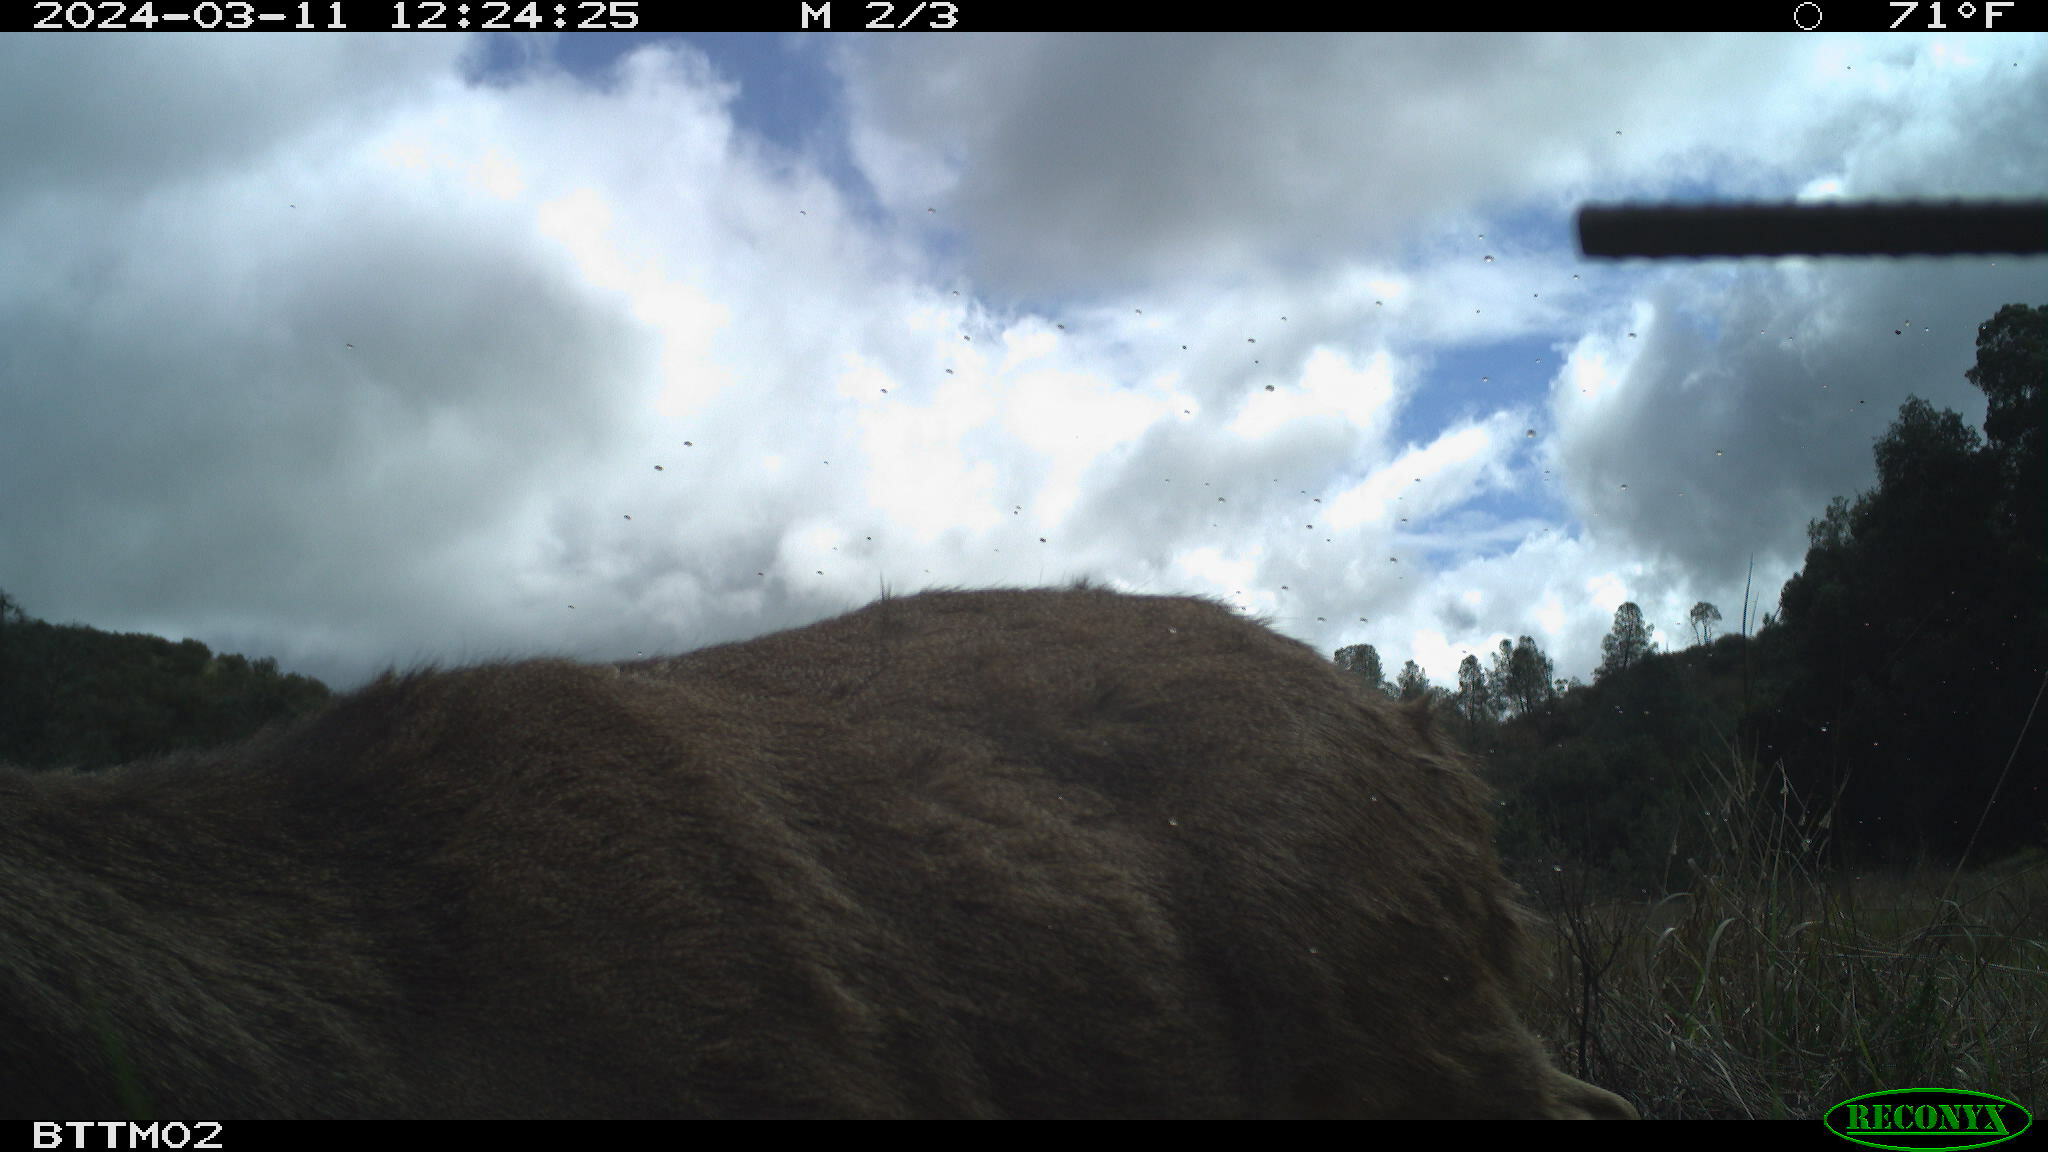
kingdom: Animalia
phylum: Chordata
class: Mammalia
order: Artiodactyla
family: Cervidae
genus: Odocoileus
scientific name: Odocoileus hemionus
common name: Mule deer
